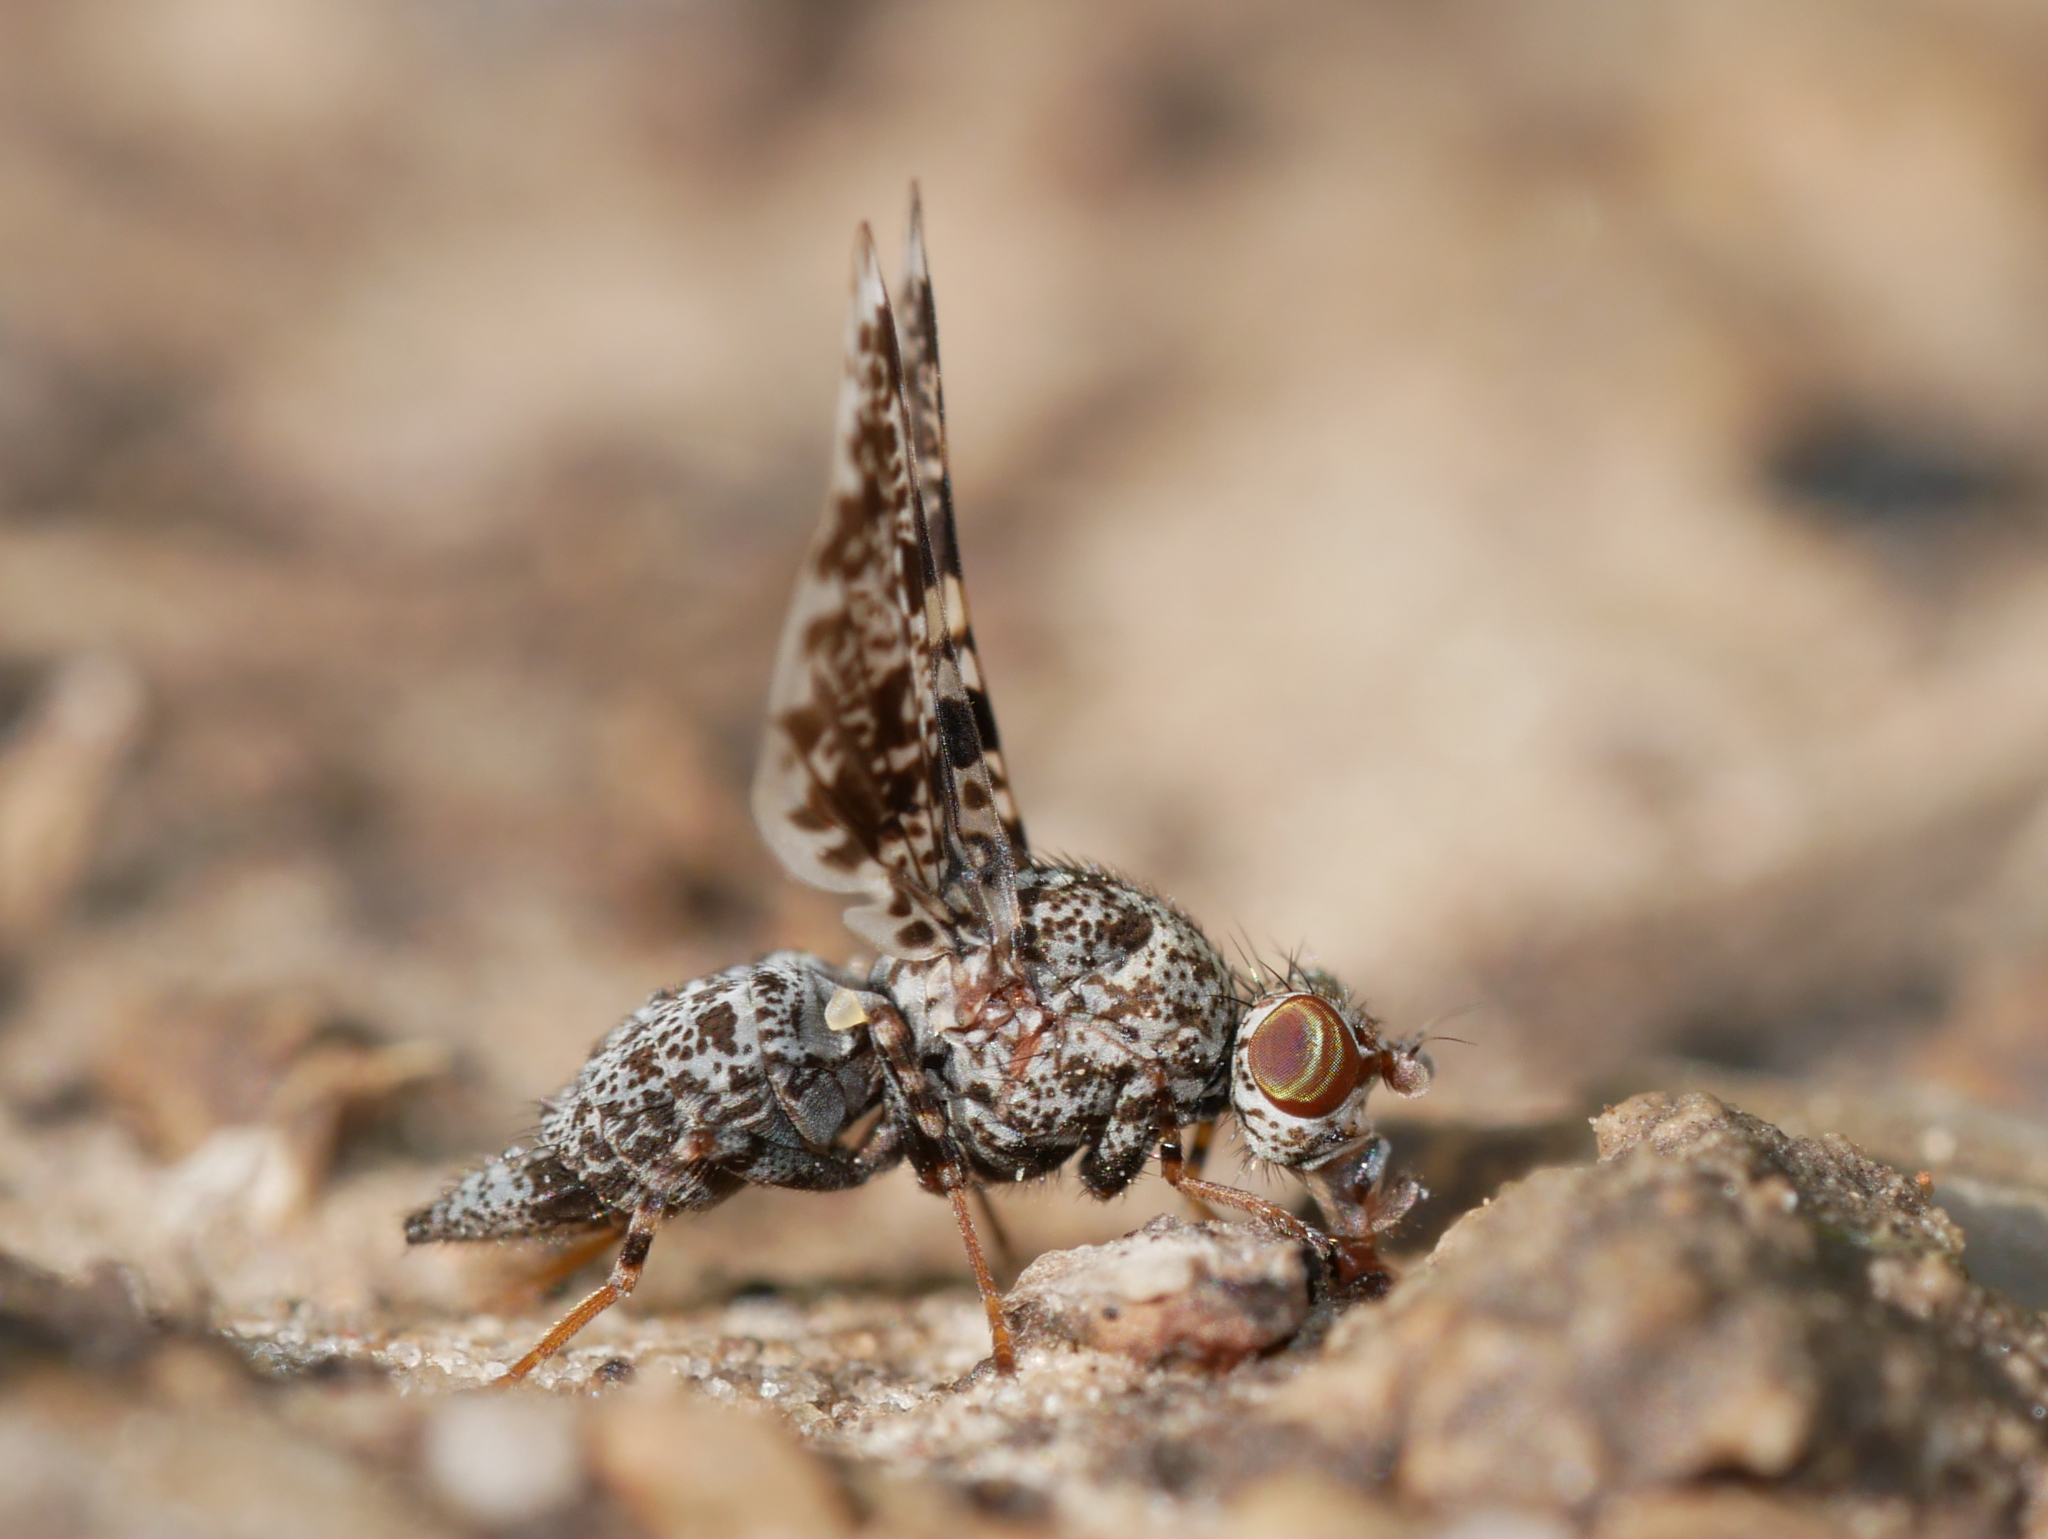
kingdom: Animalia
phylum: Arthropoda
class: Insecta
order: Diptera
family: Ulidiidae
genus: Callopistromyia
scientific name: Callopistromyia annulipes
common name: Peacock fly
